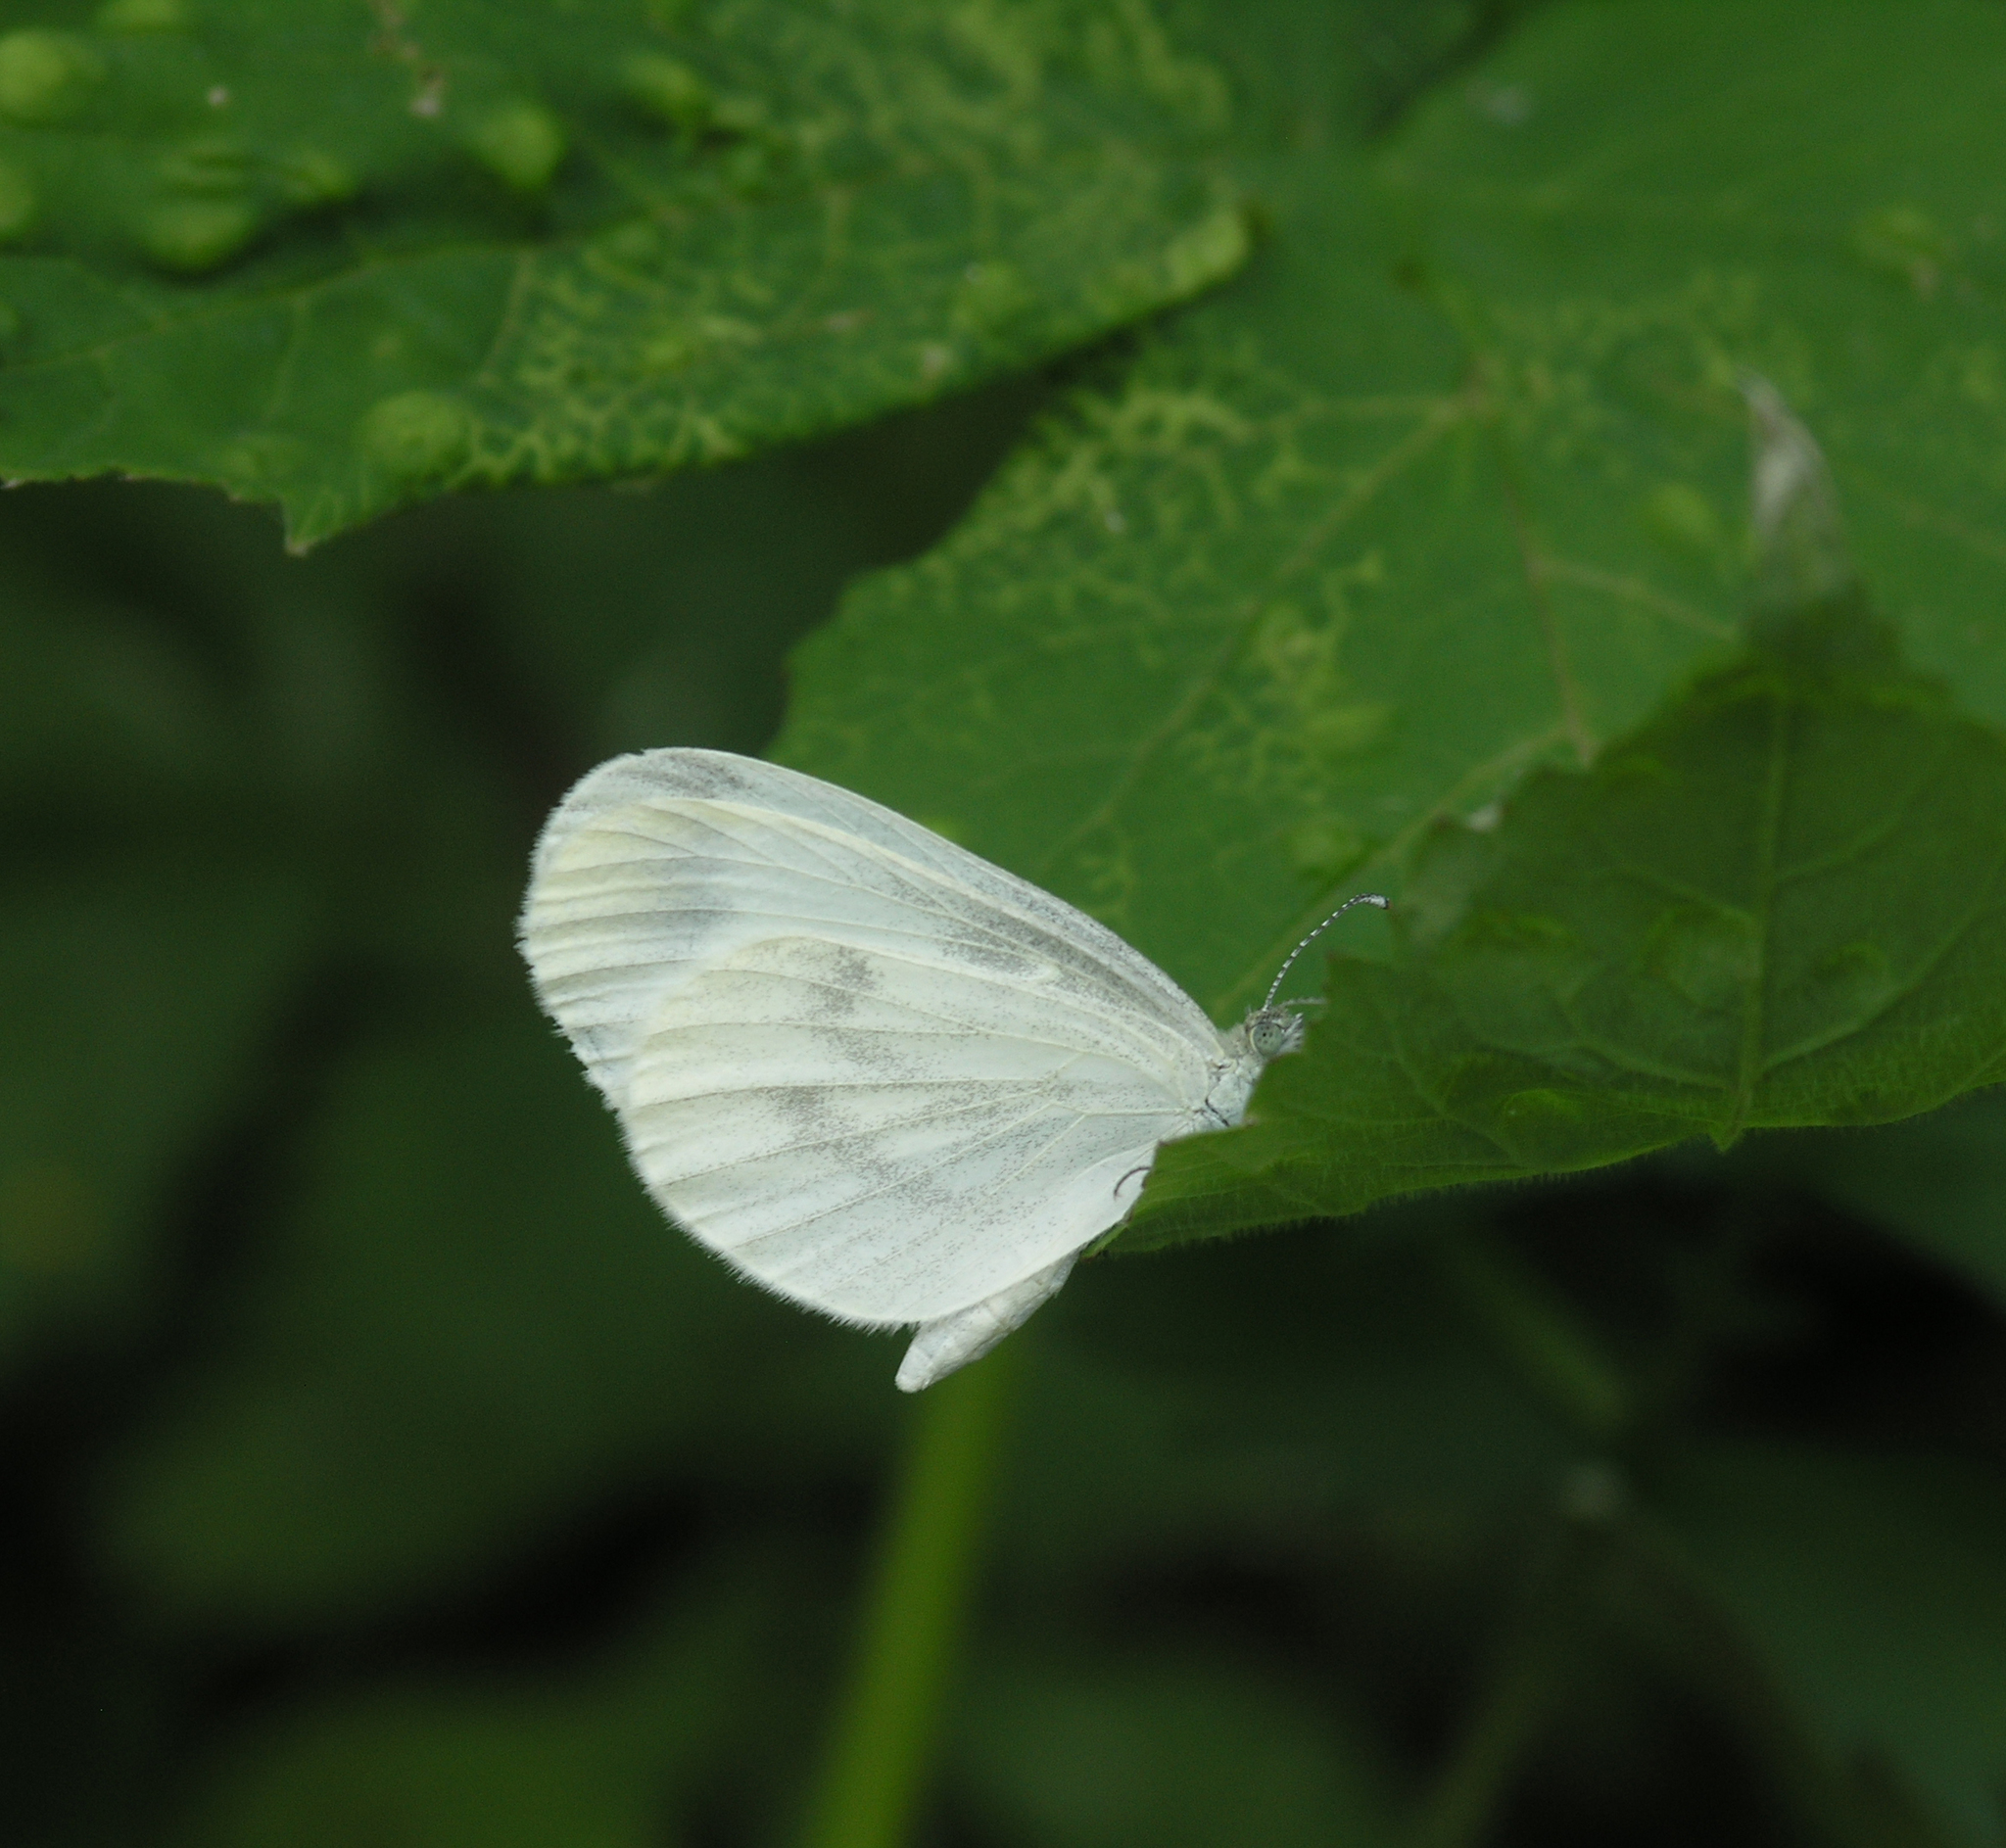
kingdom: Animalia
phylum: Arthropoda
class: Insecta
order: Lepidoptera
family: Pieridae
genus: Leptidea
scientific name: Leptidea morsei
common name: Fenton's wood white
